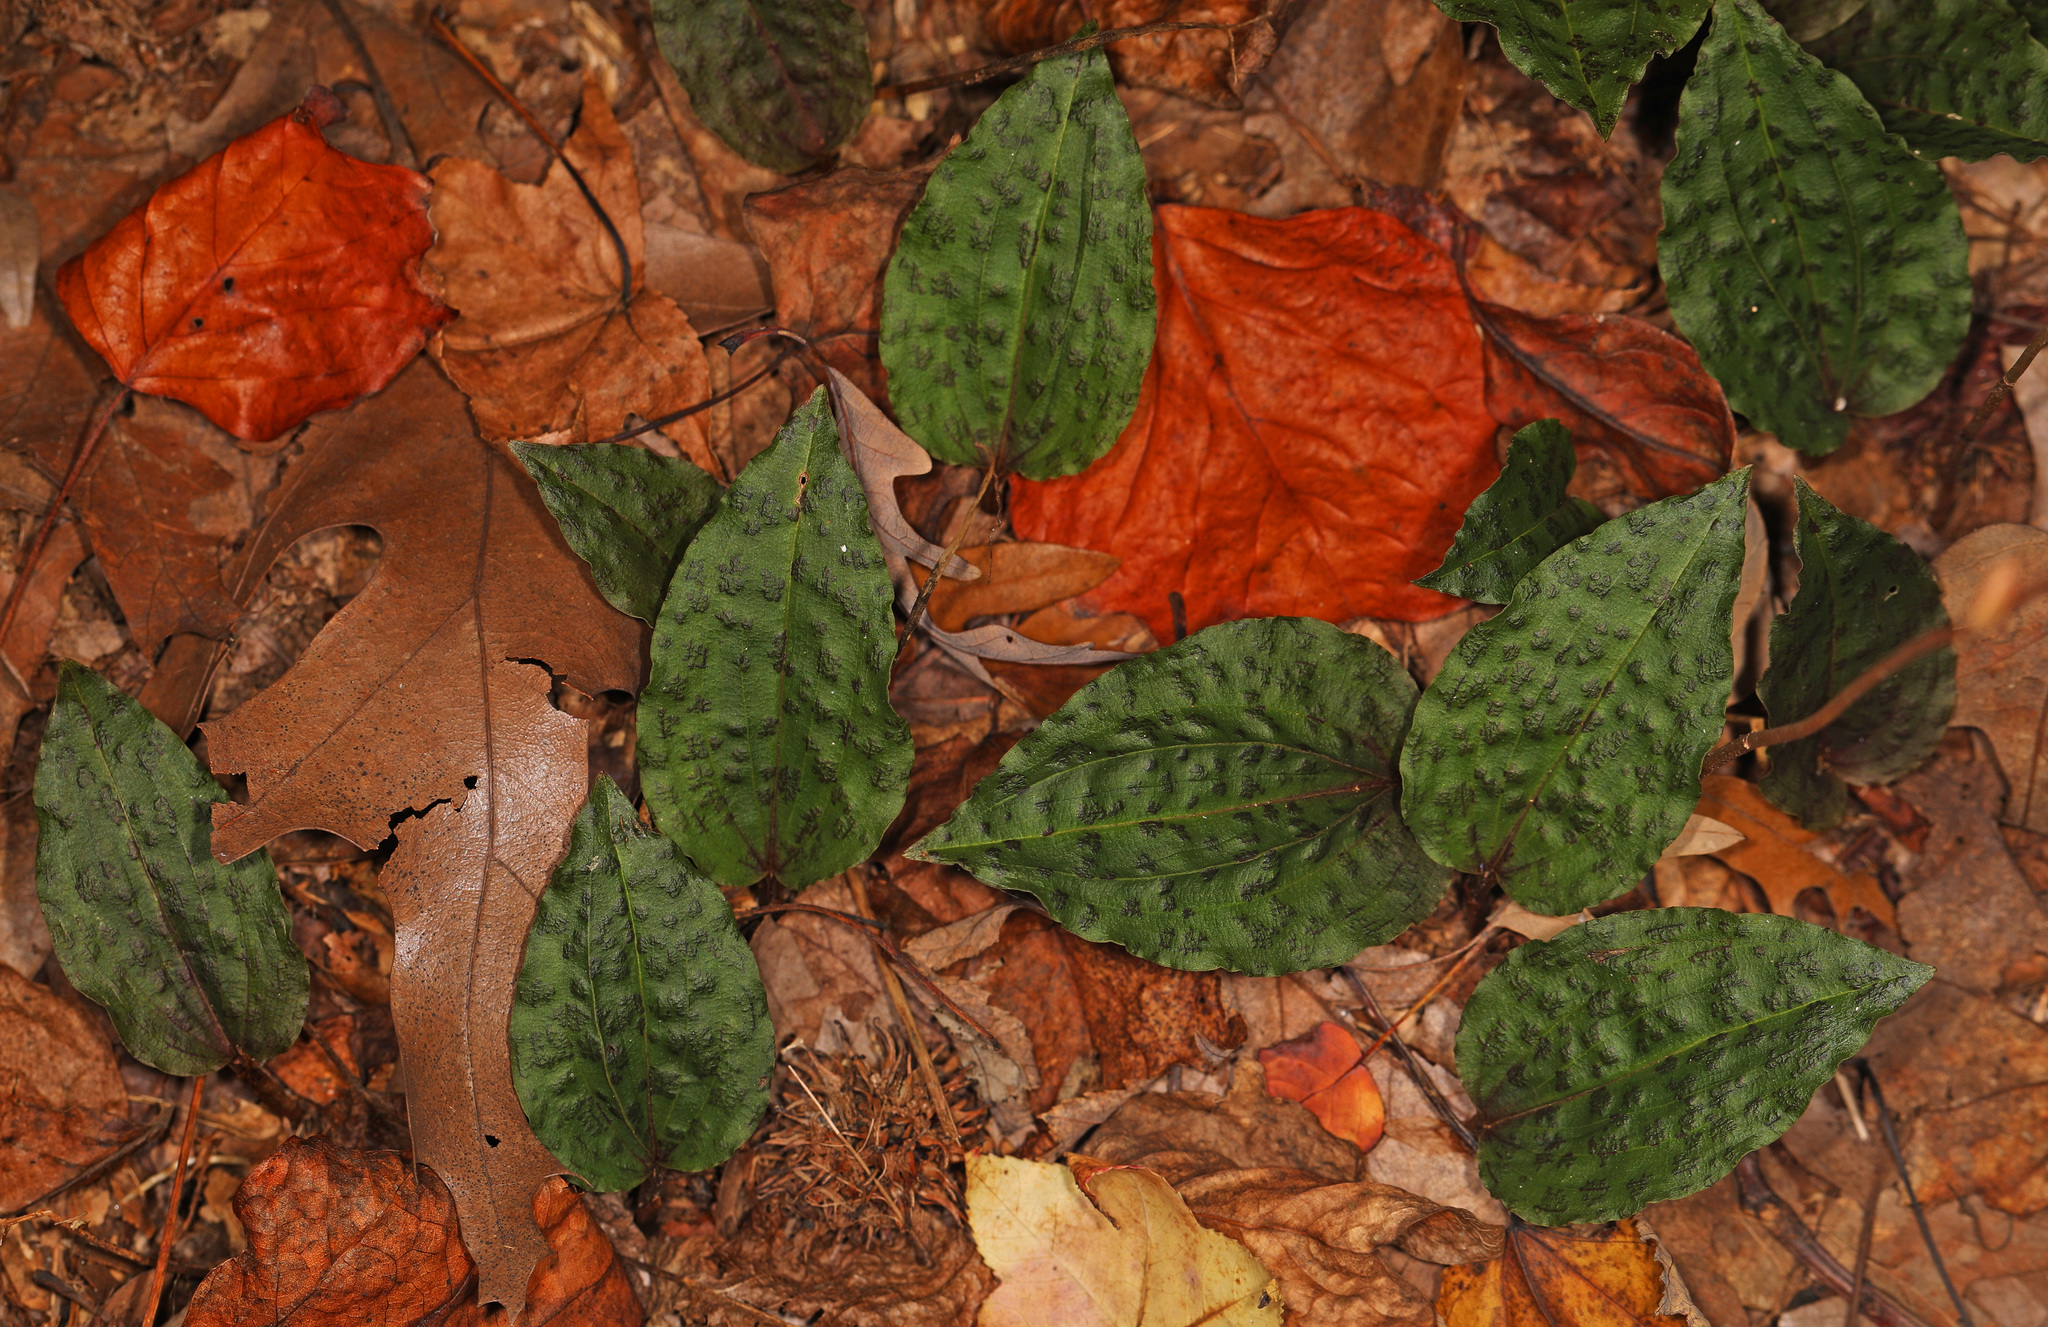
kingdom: Plantae
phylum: Tracheophyta
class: Liliopsida
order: Asparagales
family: Orchidaceae
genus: Tipularia
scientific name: Tipularia discolor
